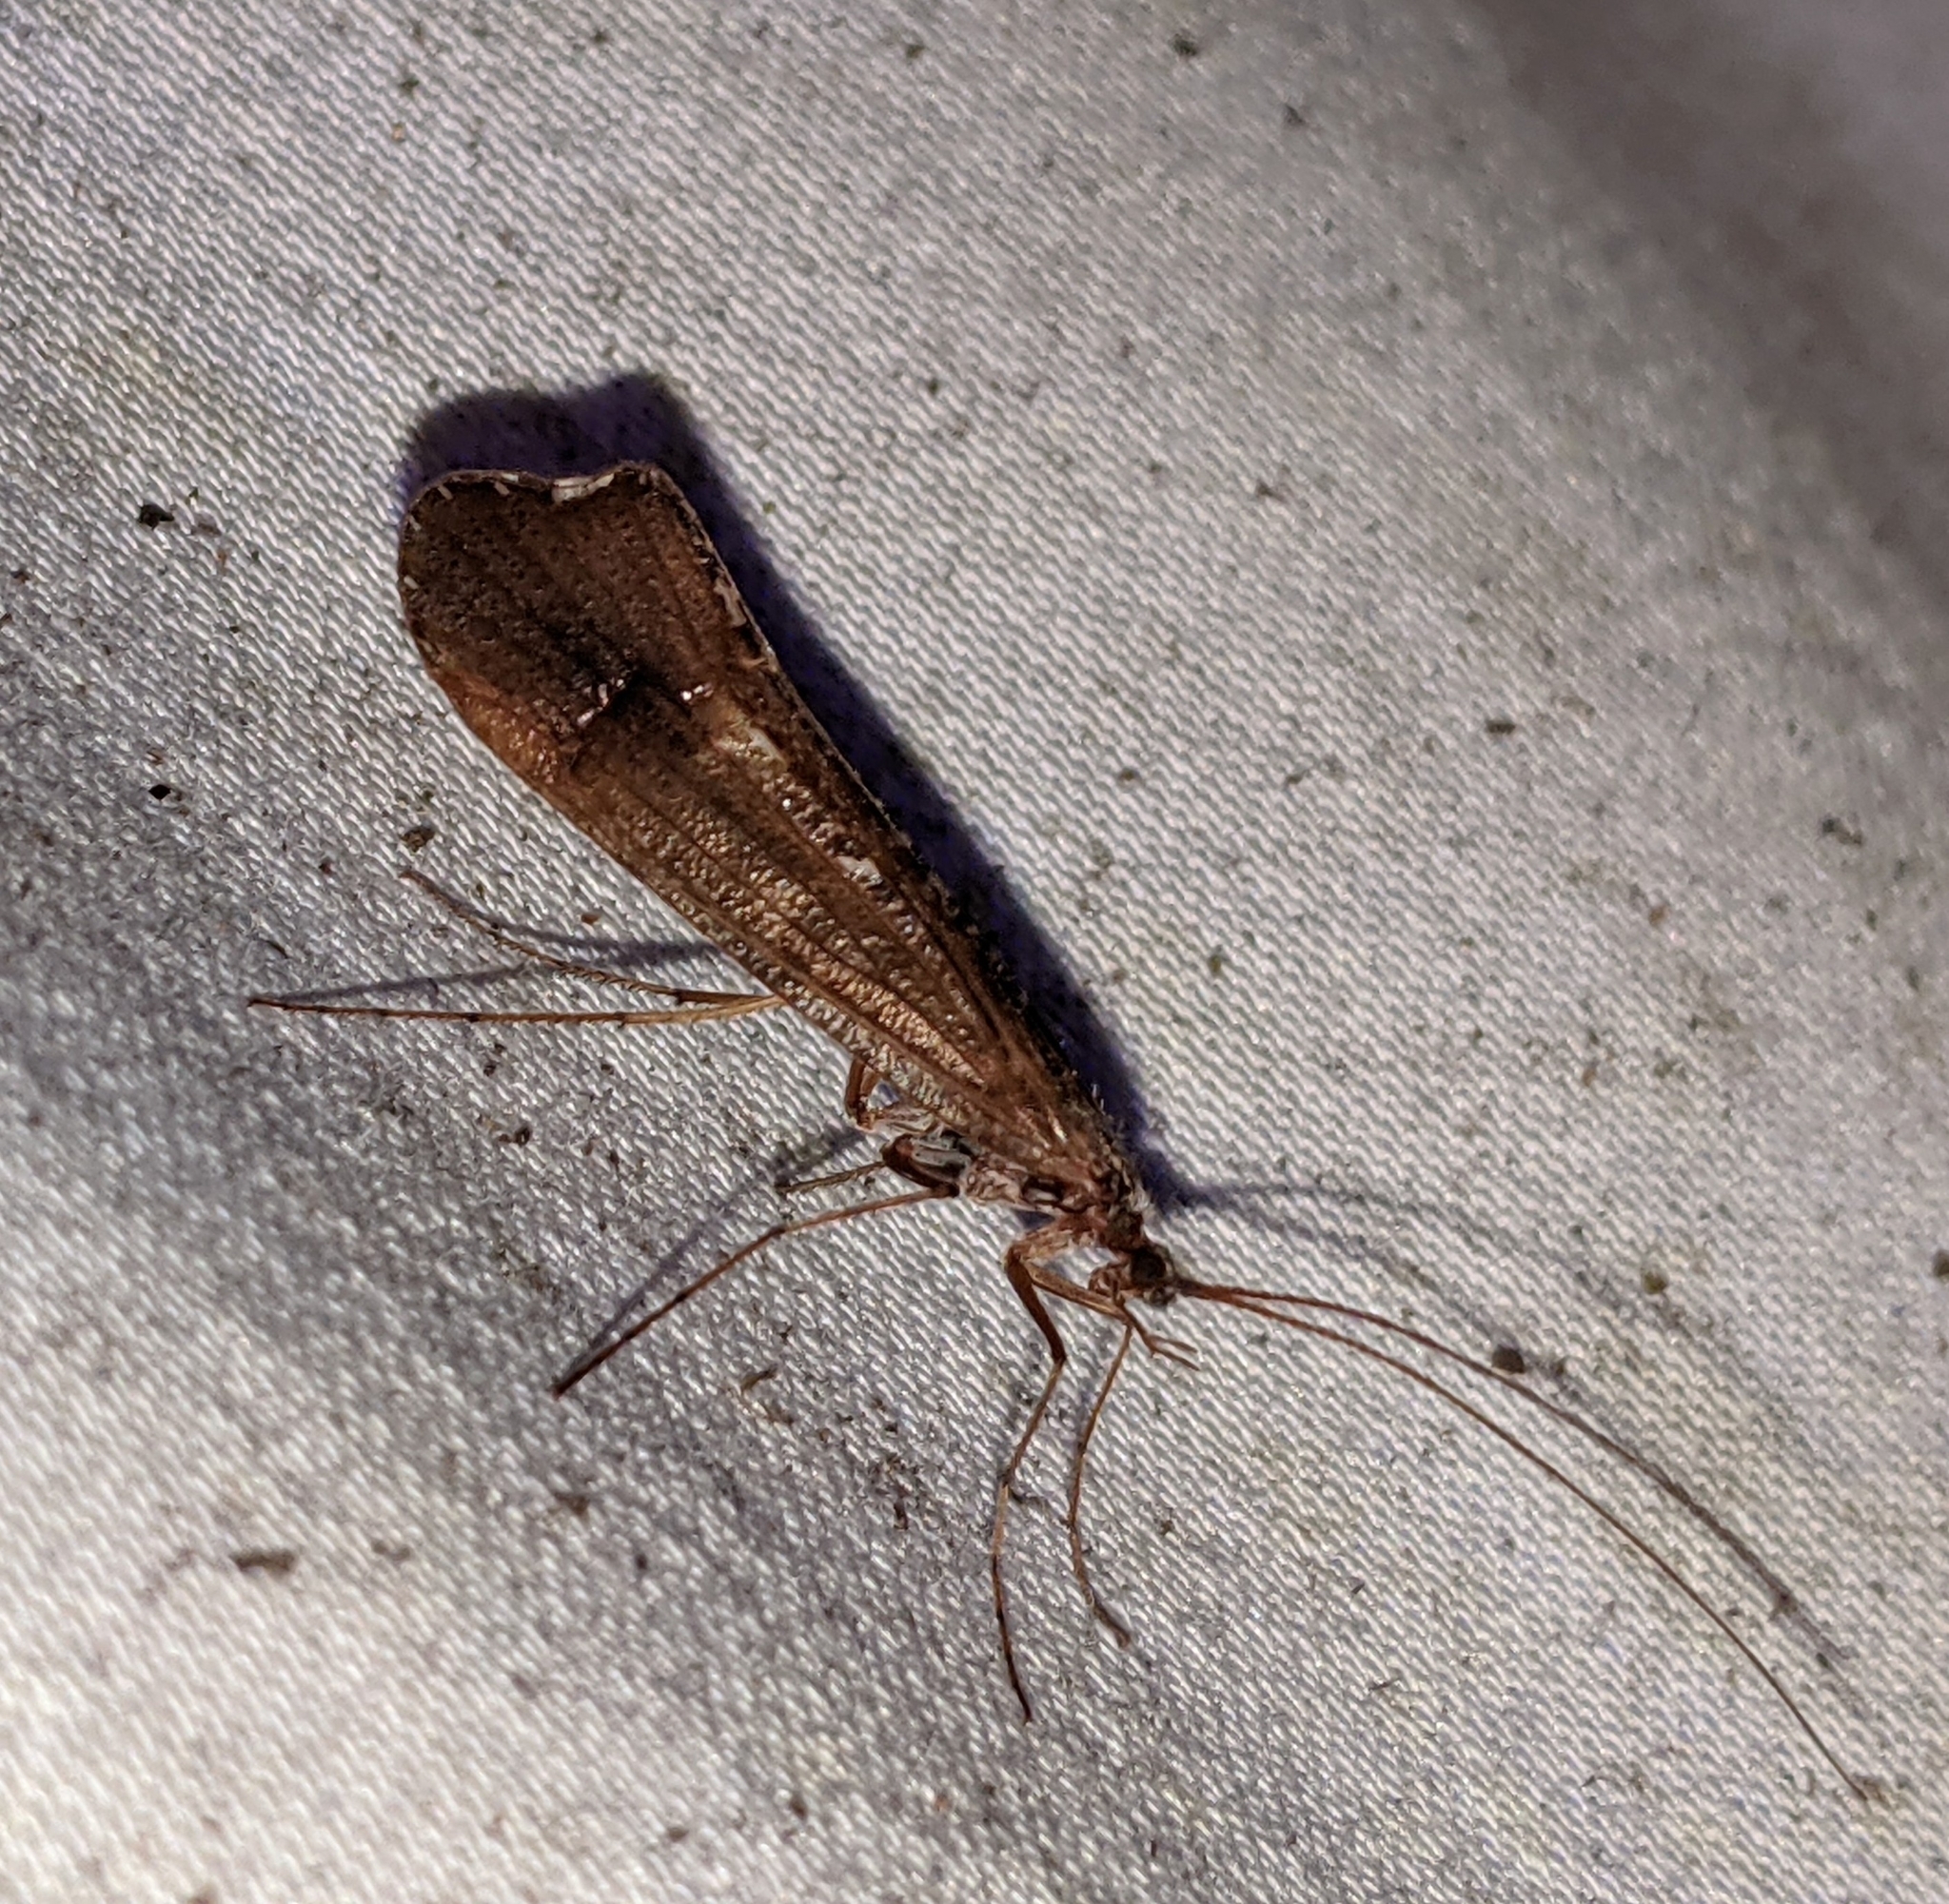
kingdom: Animalia
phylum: Arthropoda
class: Insecta
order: Trichoptera
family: Limnephilidae
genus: Glyphopsyche
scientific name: Glyphopsyche irrorata
